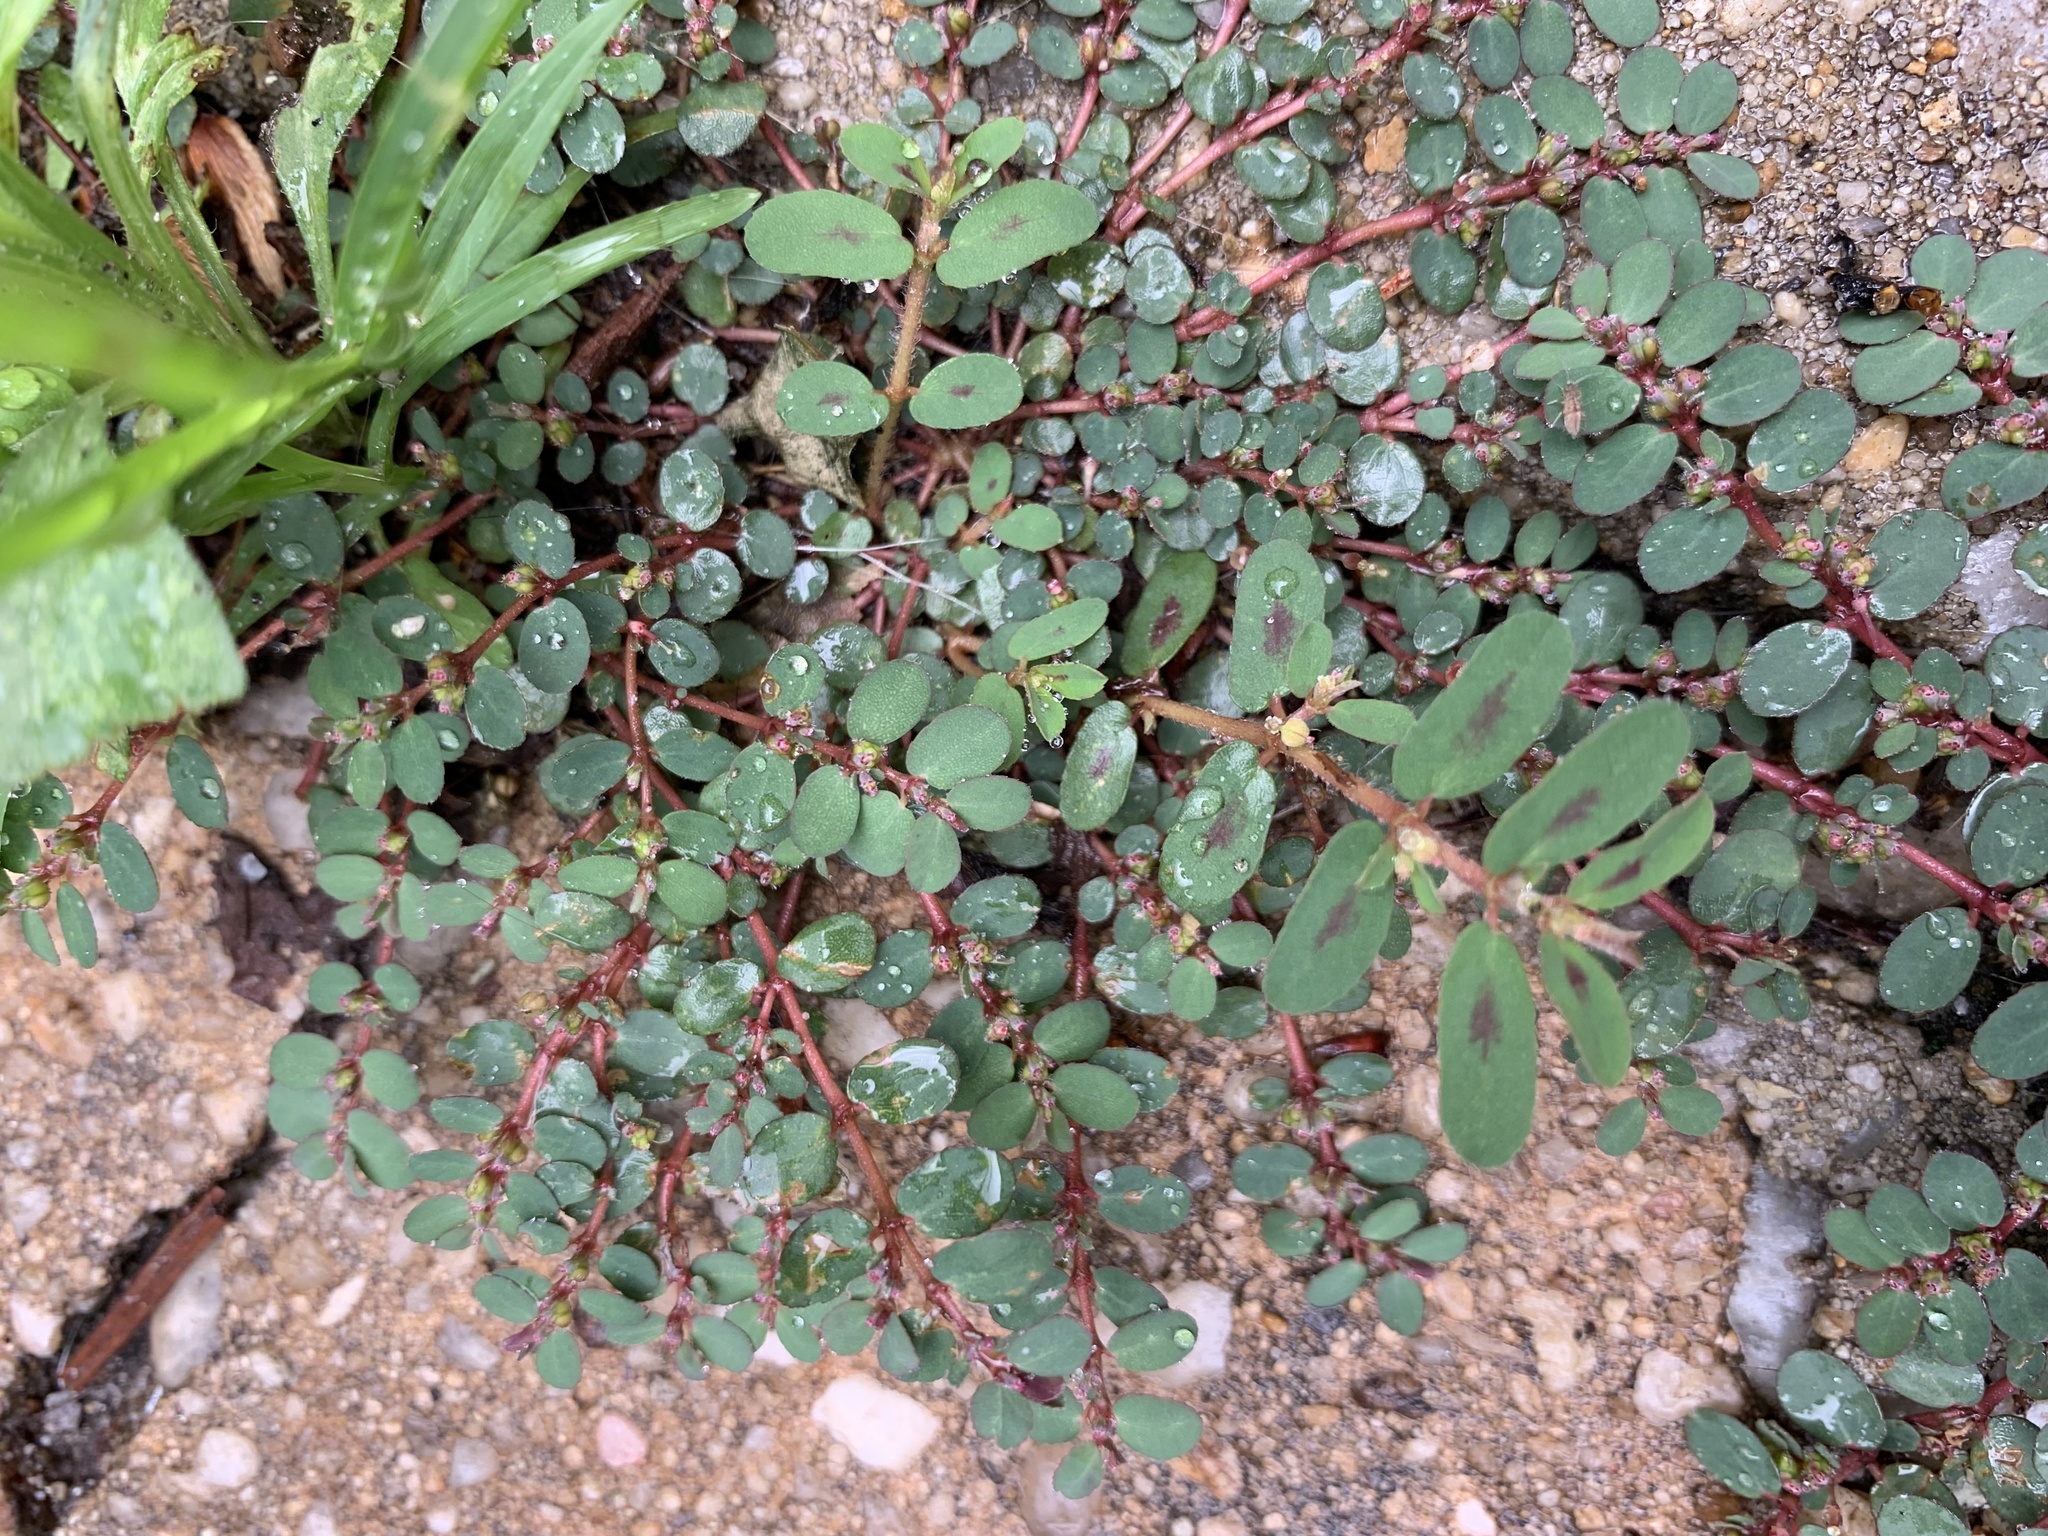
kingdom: Plantae
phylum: Tracheophyta
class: Magnoliopsida
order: Malpighiales
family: Euphorbiaceae
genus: Euphorbia
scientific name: Euphorbia maculata
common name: Spotted spurge
